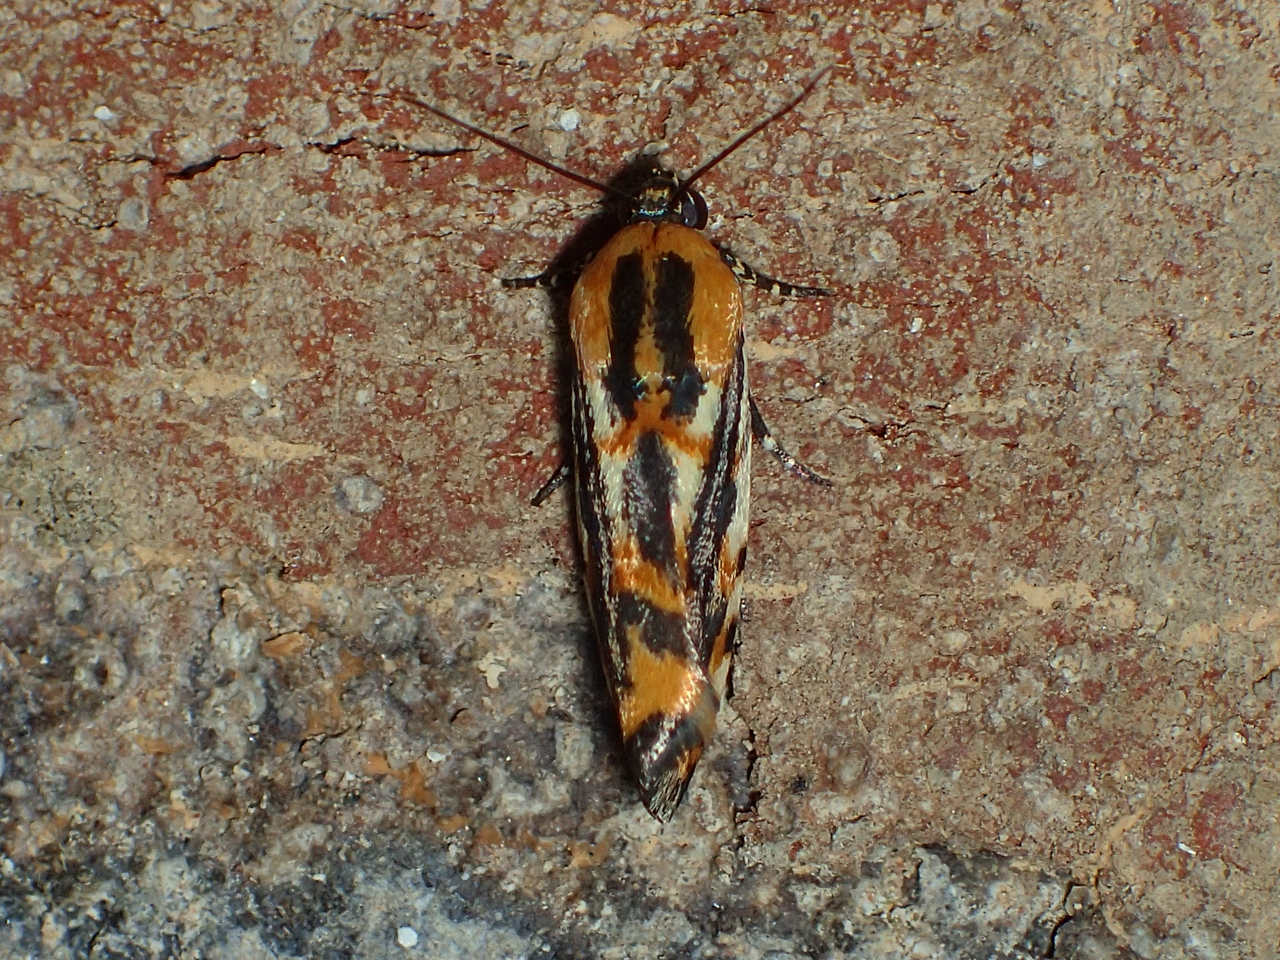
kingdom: Animalia
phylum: Arthropoda
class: Insecta
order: Lepidoptera
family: Noctuidae
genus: Acontia
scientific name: Acontia leo
